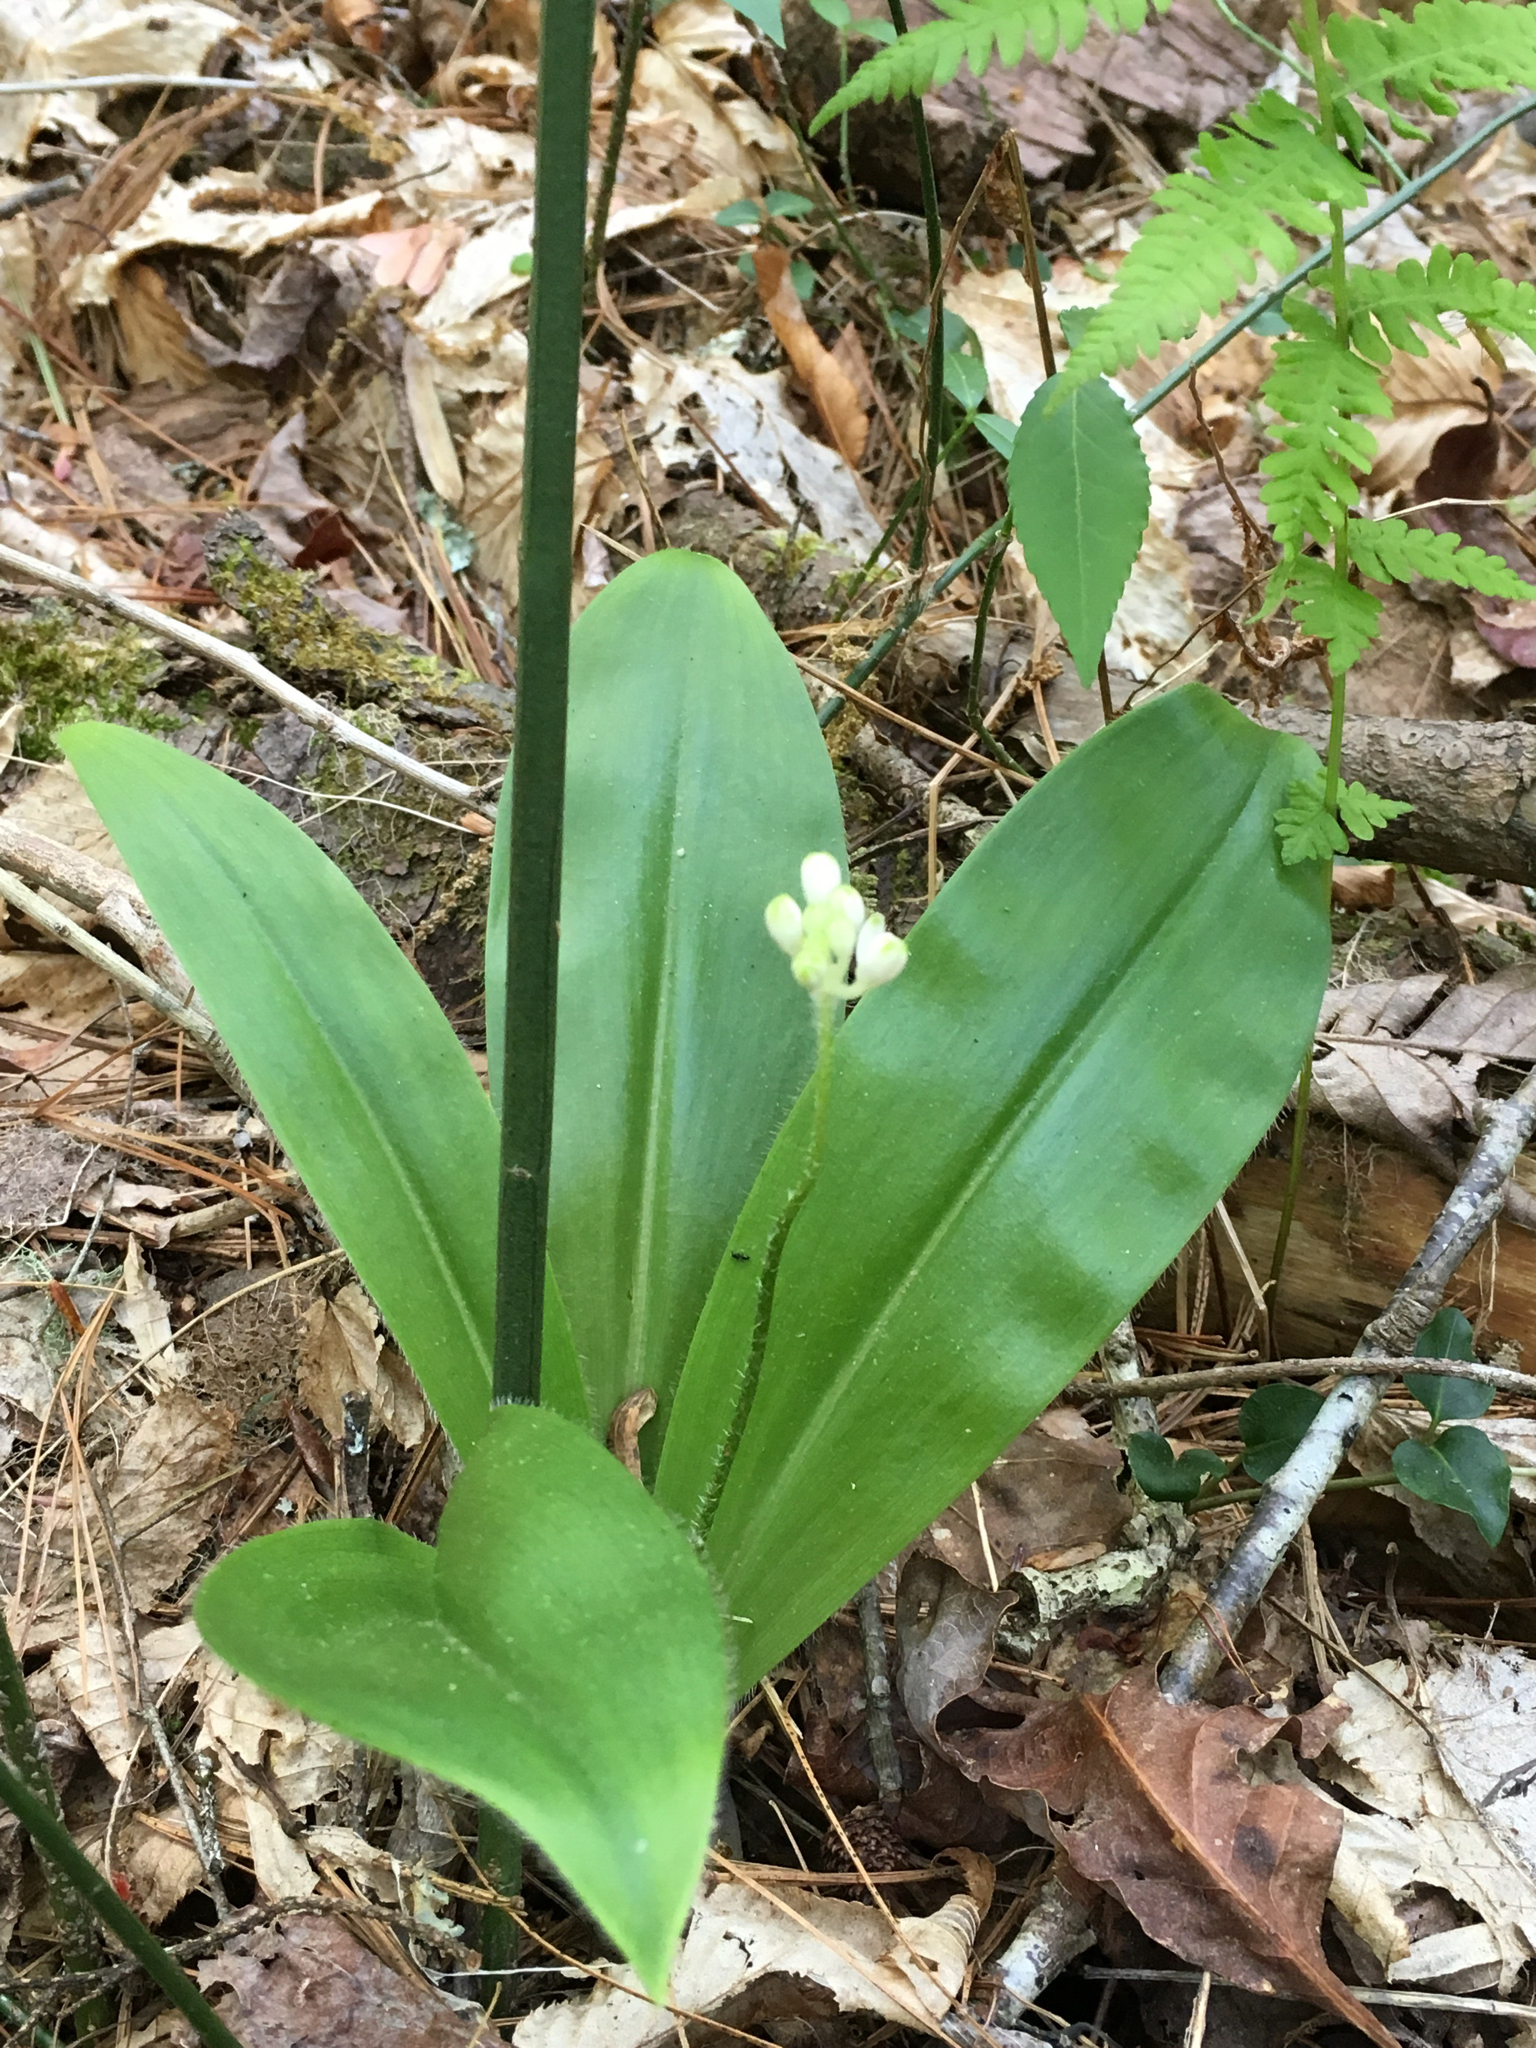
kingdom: Plantae
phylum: Tracheophyta
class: Liliopsida
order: Liliales
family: Liliaceae
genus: Clintonia
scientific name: Clintonia umbellulata
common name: Speckle wood-lily
